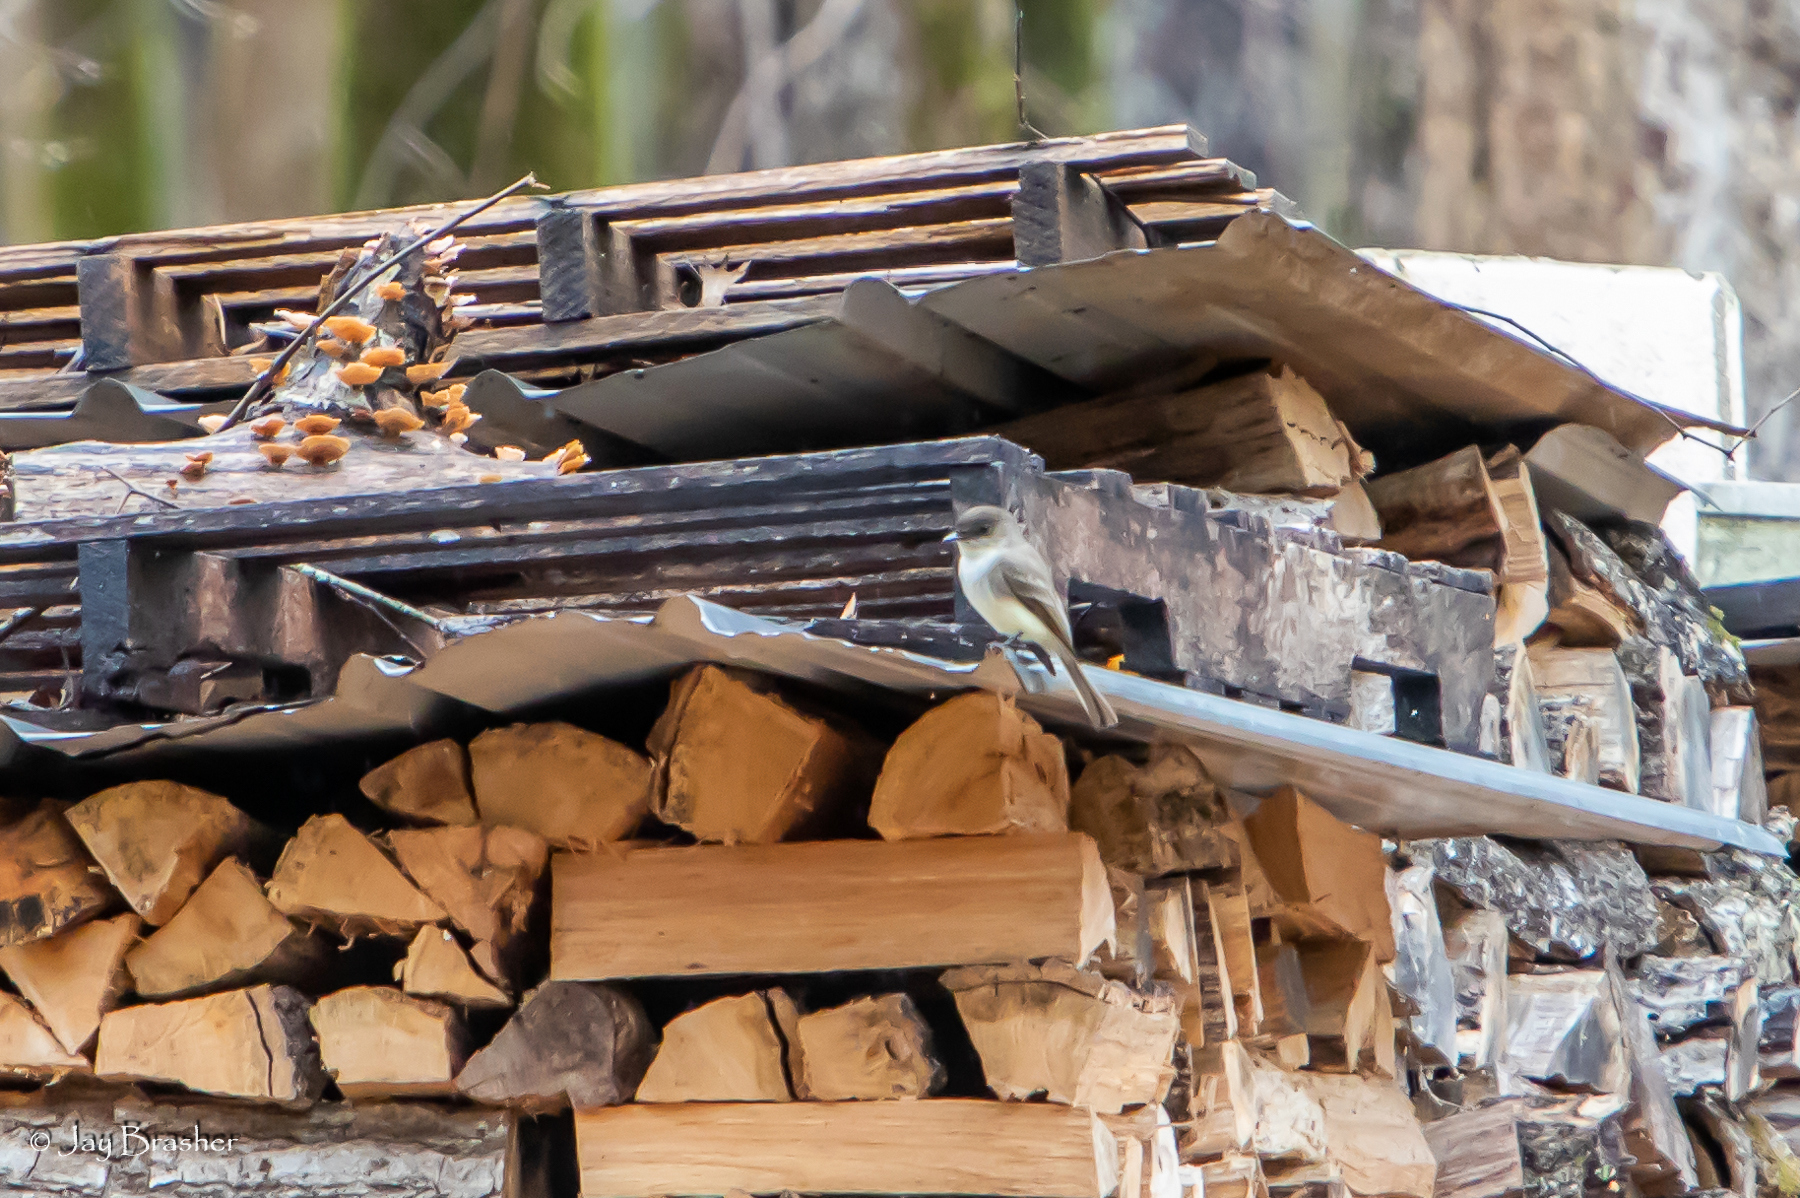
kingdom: Animalia
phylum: Chordata
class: Aves
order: Passeriformes
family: Tyrannidae
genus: Sayornis
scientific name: Sayornis phoebe
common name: Eastern phoebe
